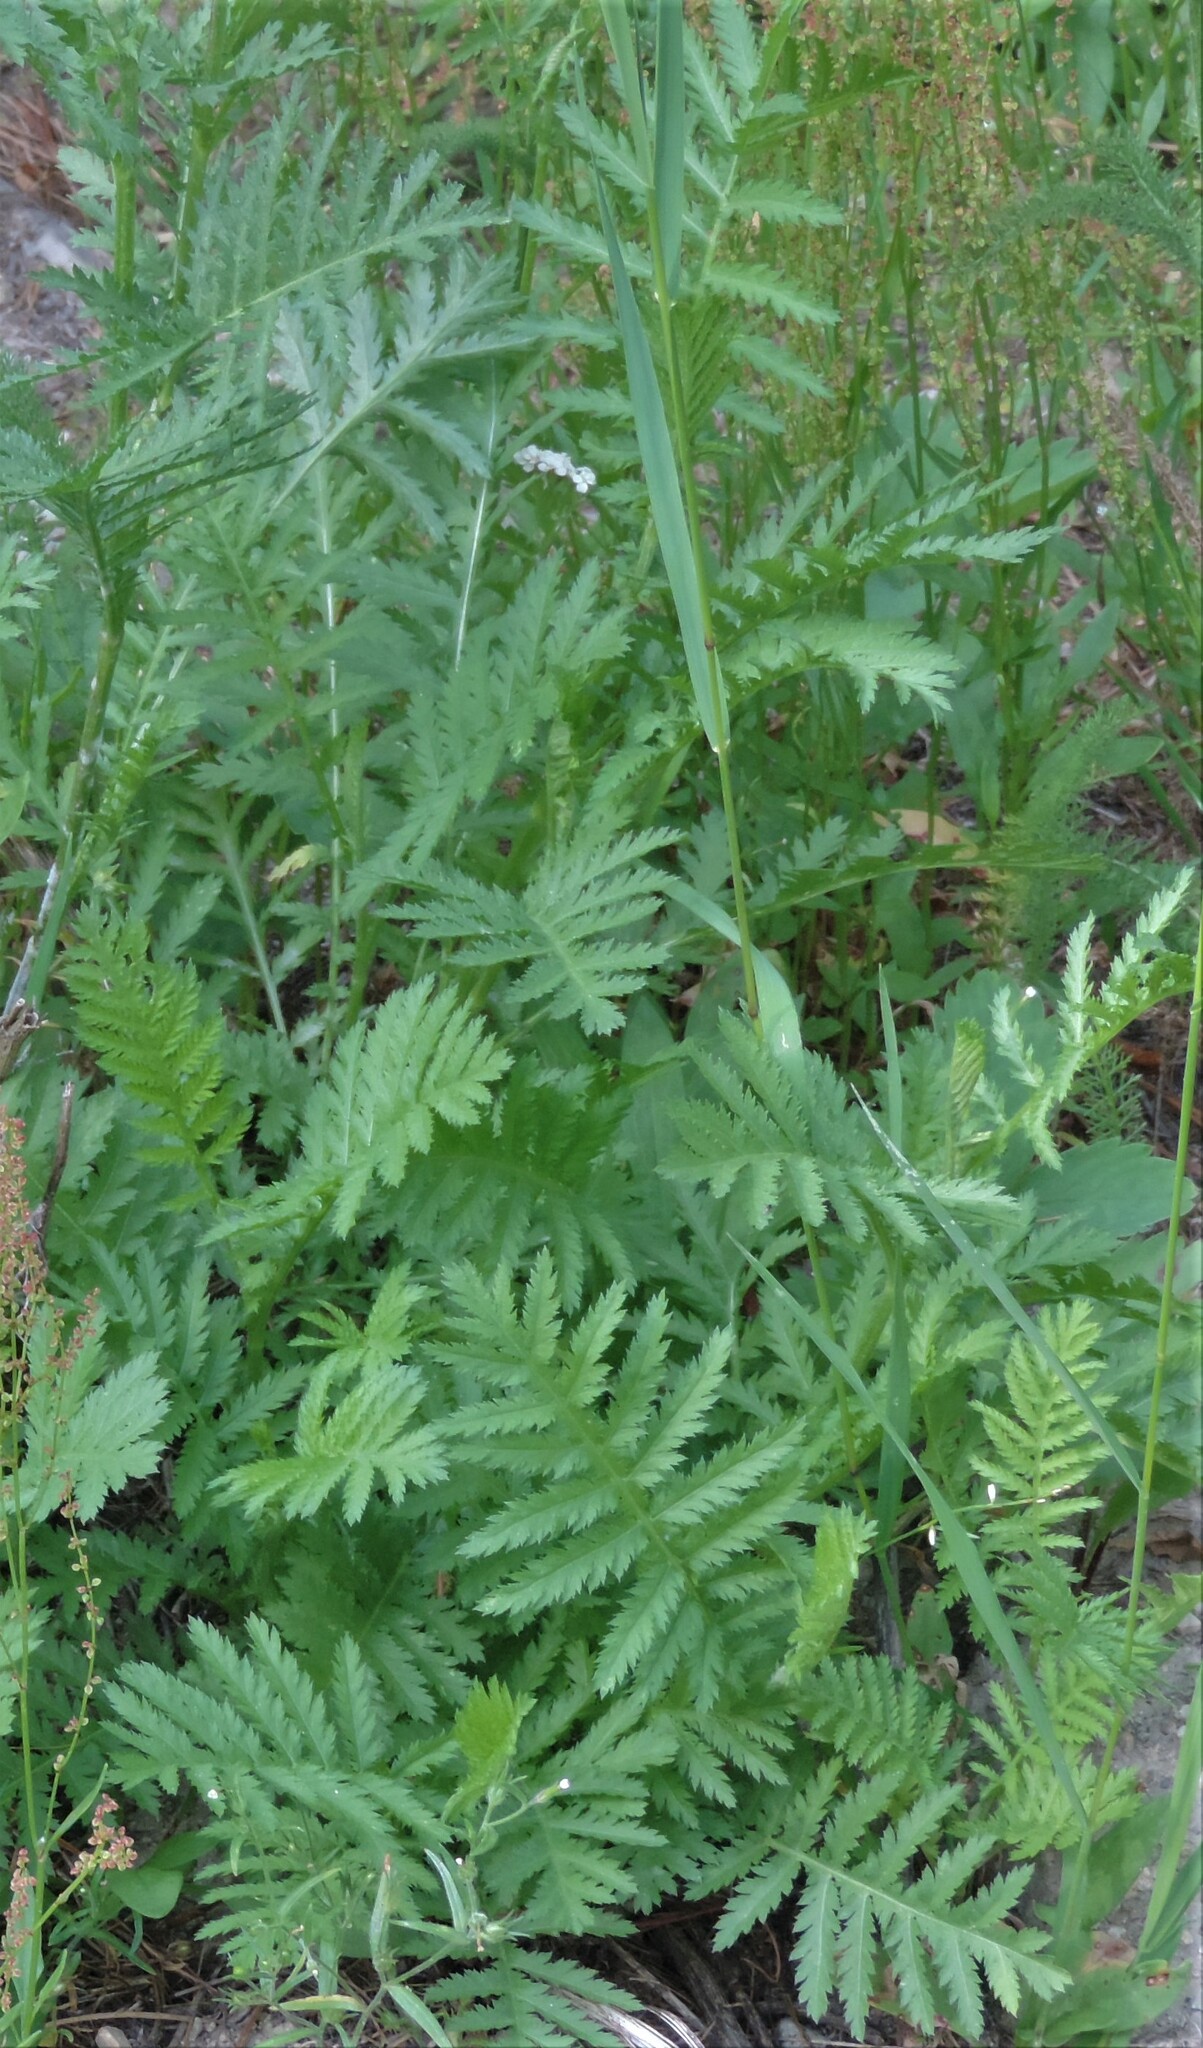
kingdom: Plantae
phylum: Tracheophyta
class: Magnoliopsida
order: Asterales
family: Asteraceae
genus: Tanacetum
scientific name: Tanacetum vulgare
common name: Common tansy
